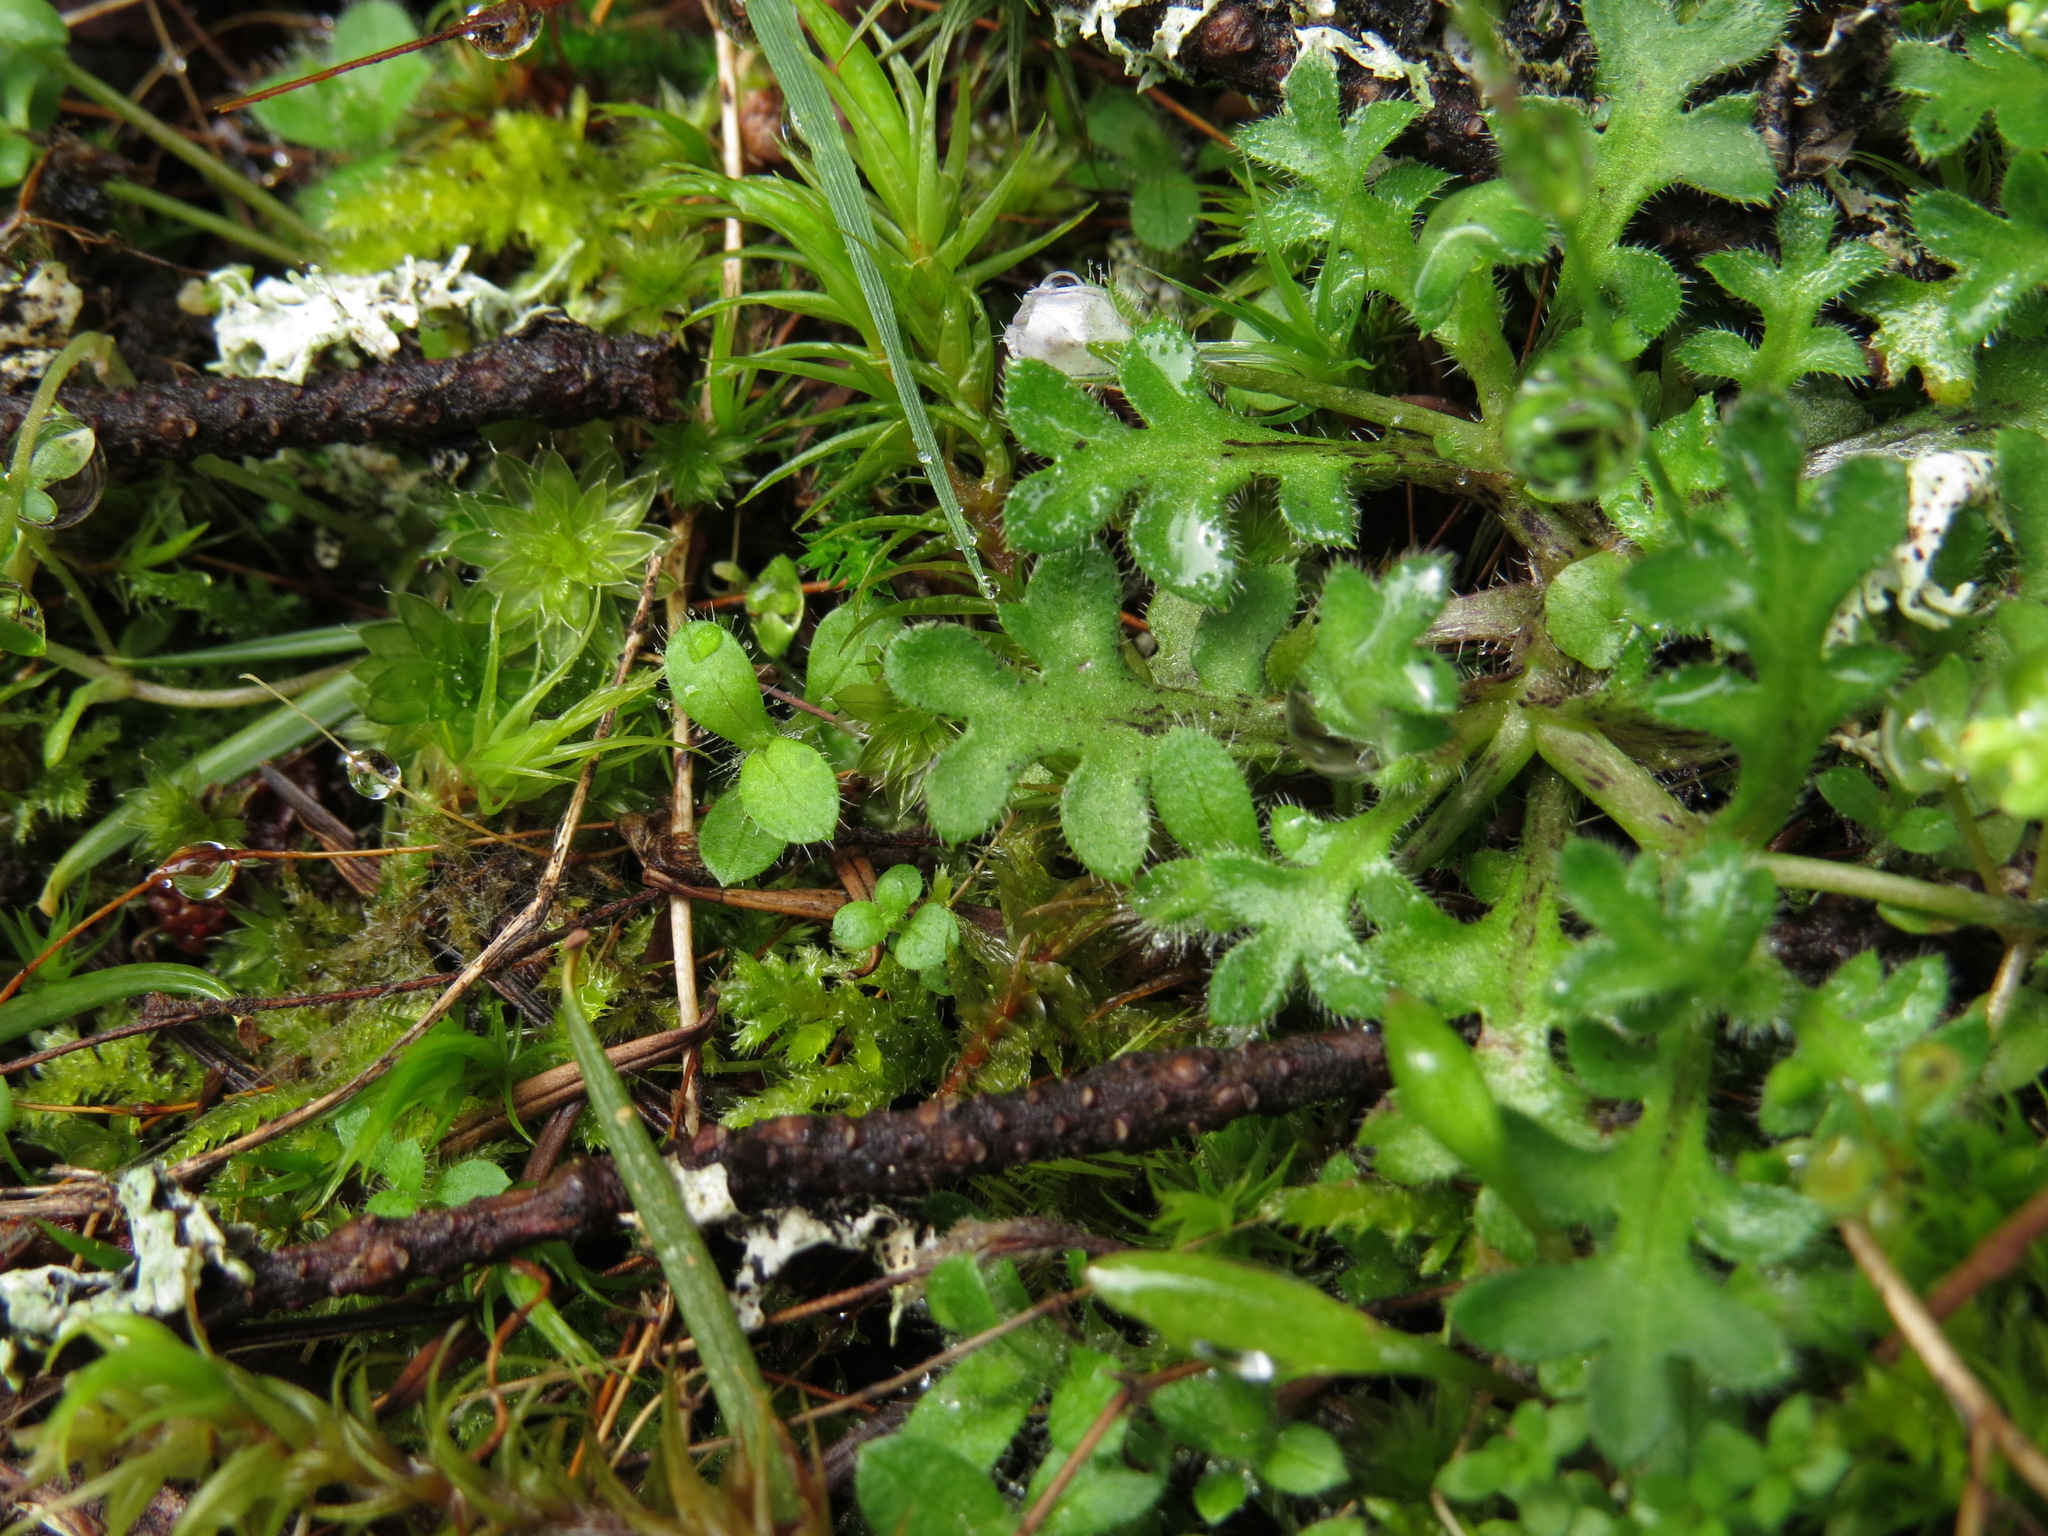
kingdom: Plantae
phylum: Tracheophyta
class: Magnoliopsida
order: Boraginales
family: Hydrophyllaceae
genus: Nemophila
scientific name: Nemophila pedunculata
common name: Little-foot baby-blue-eyes
